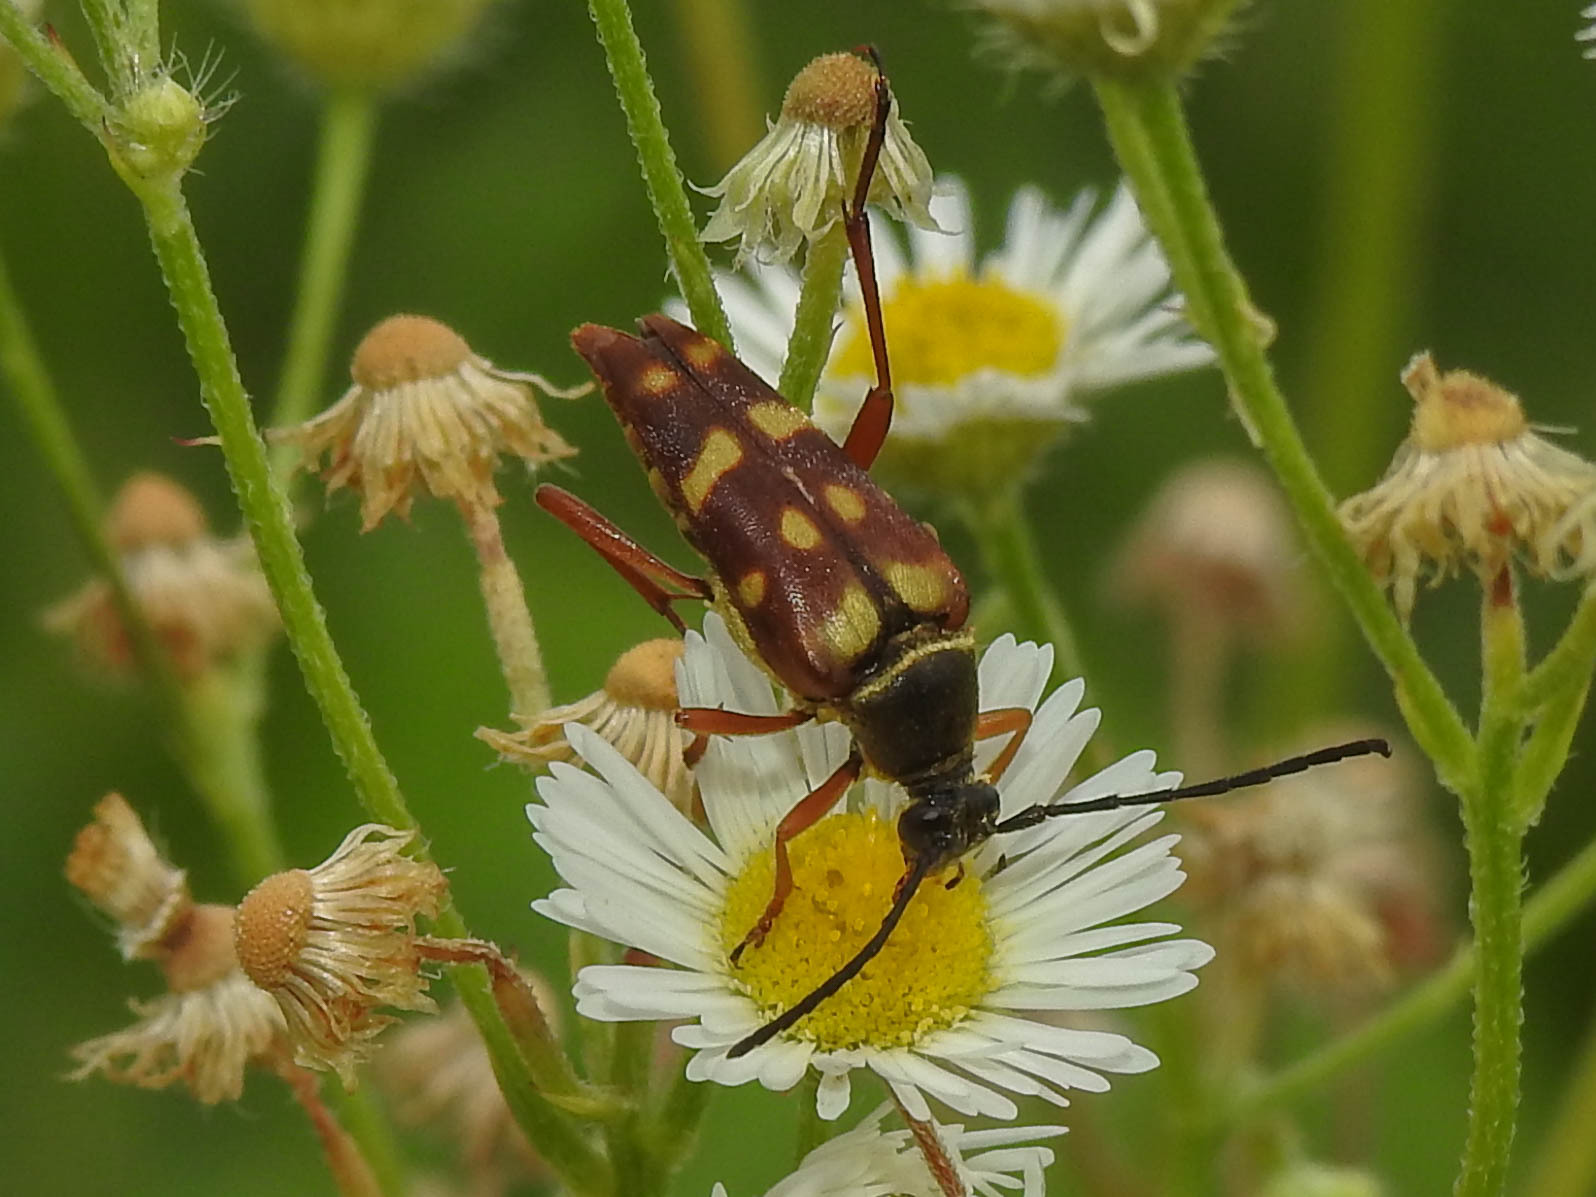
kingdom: Animalia
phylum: Arthropoda
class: Insecta
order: Coleoptera
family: Cerambycidae
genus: Typocerus
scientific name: Typocerus velutinus
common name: Banded longhorn beetle
